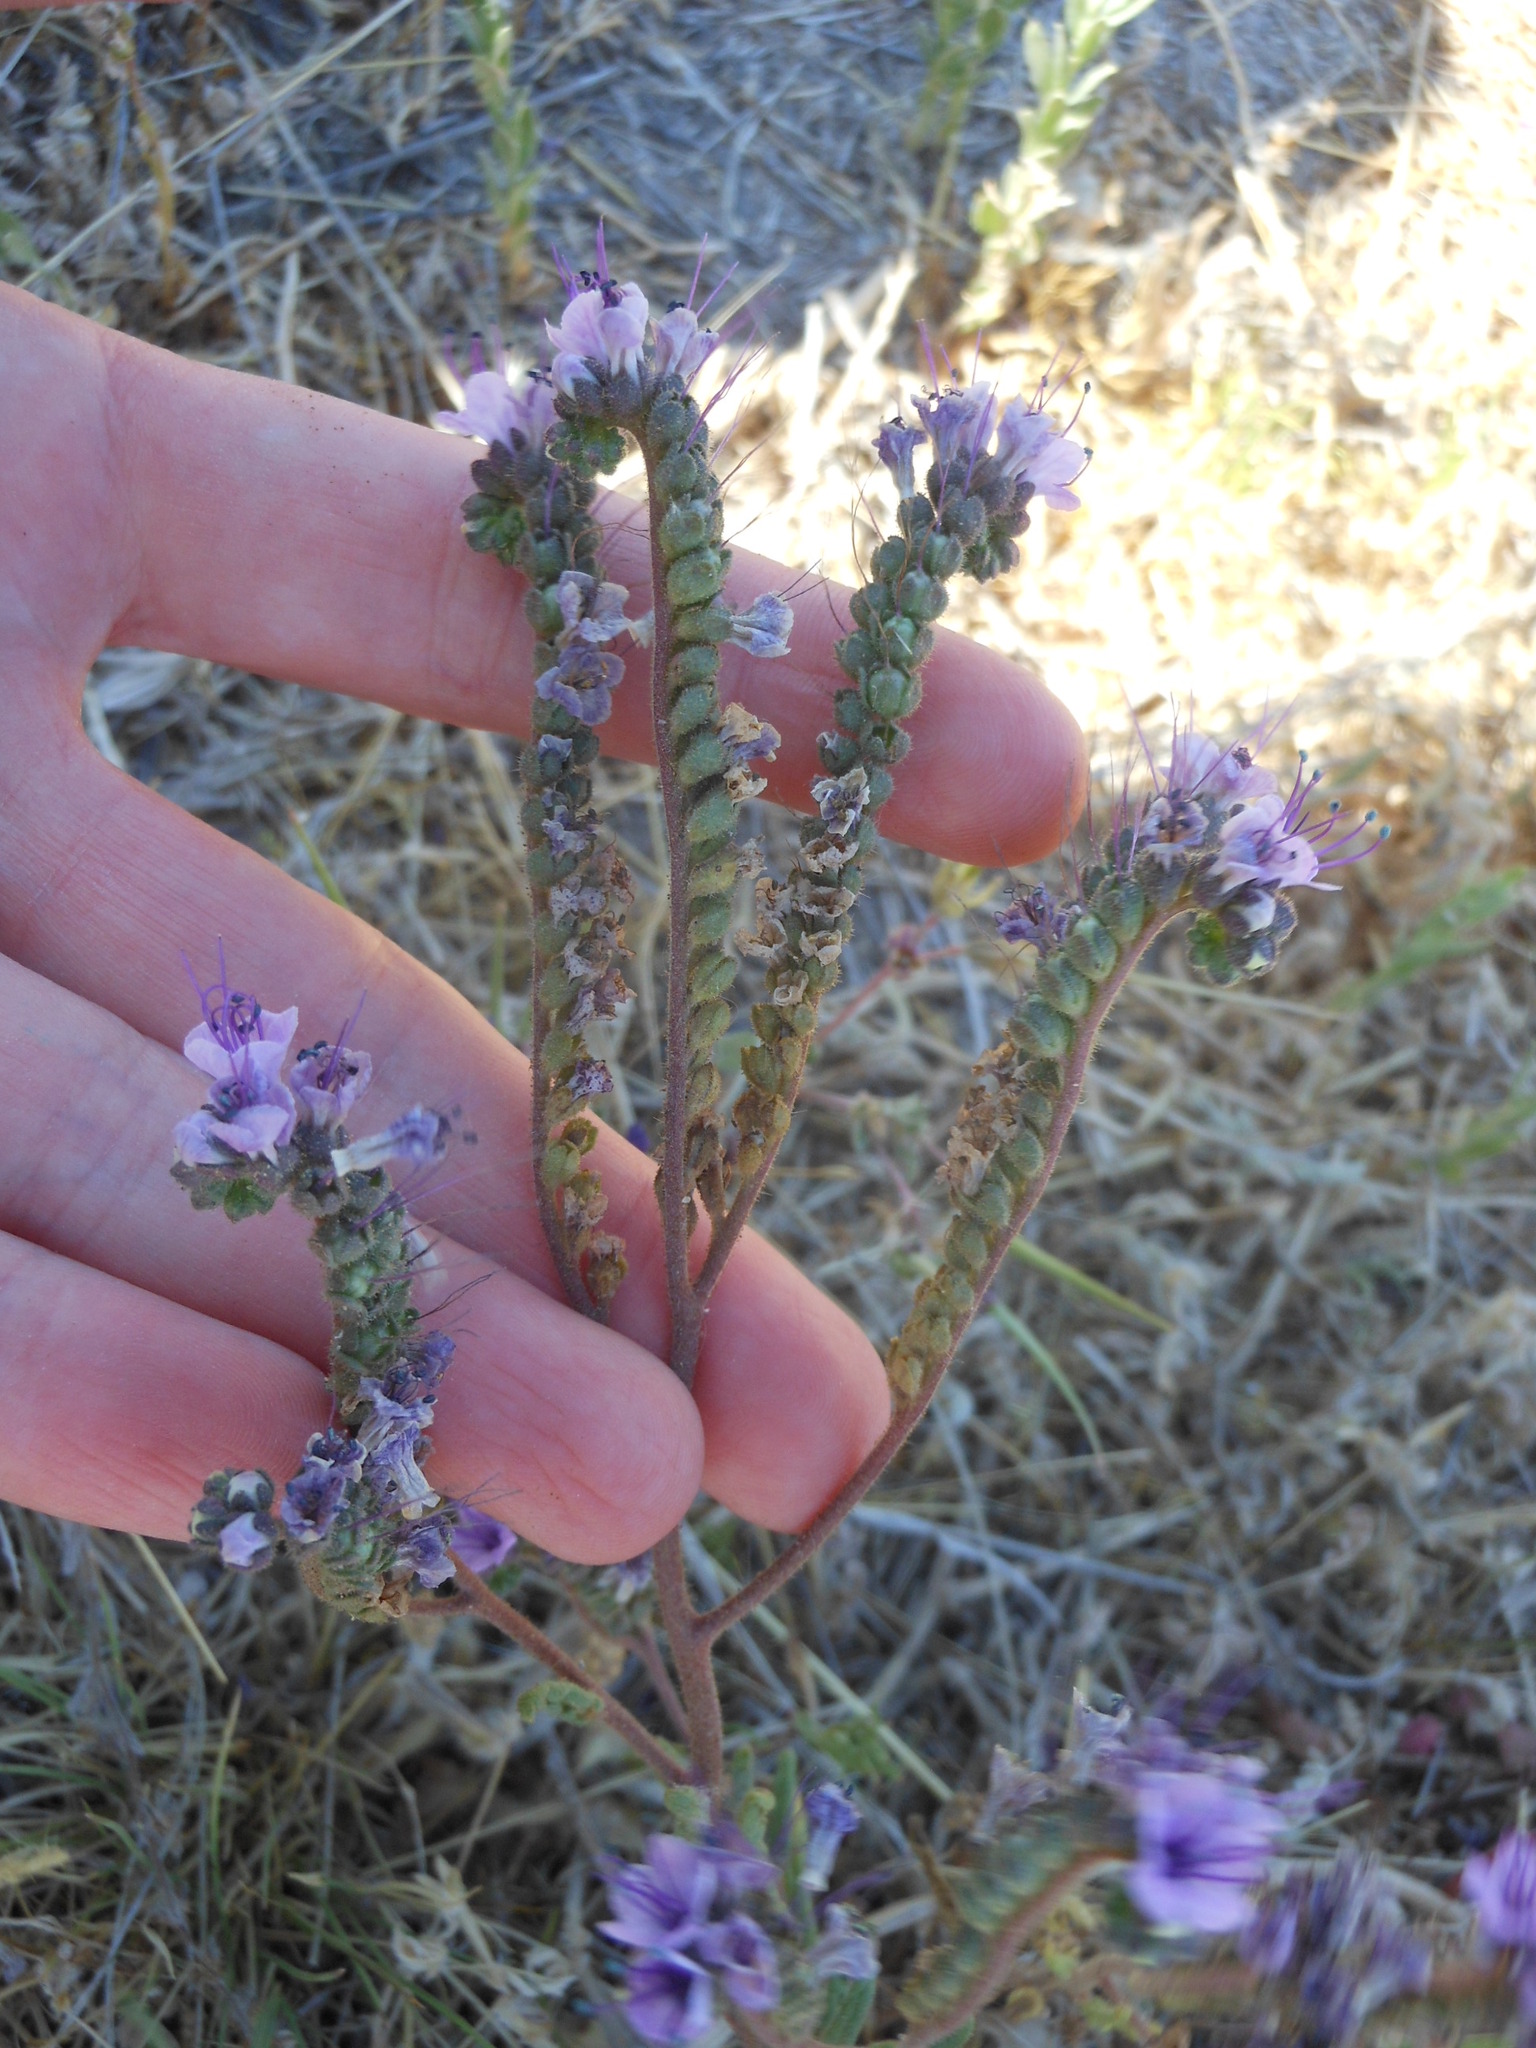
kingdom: Plantae
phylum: Tracheophyta
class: Magnoliopsida
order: Boraginales
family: Hydrophyllaceae
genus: Phacelia
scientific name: Phacelia integrifolia
